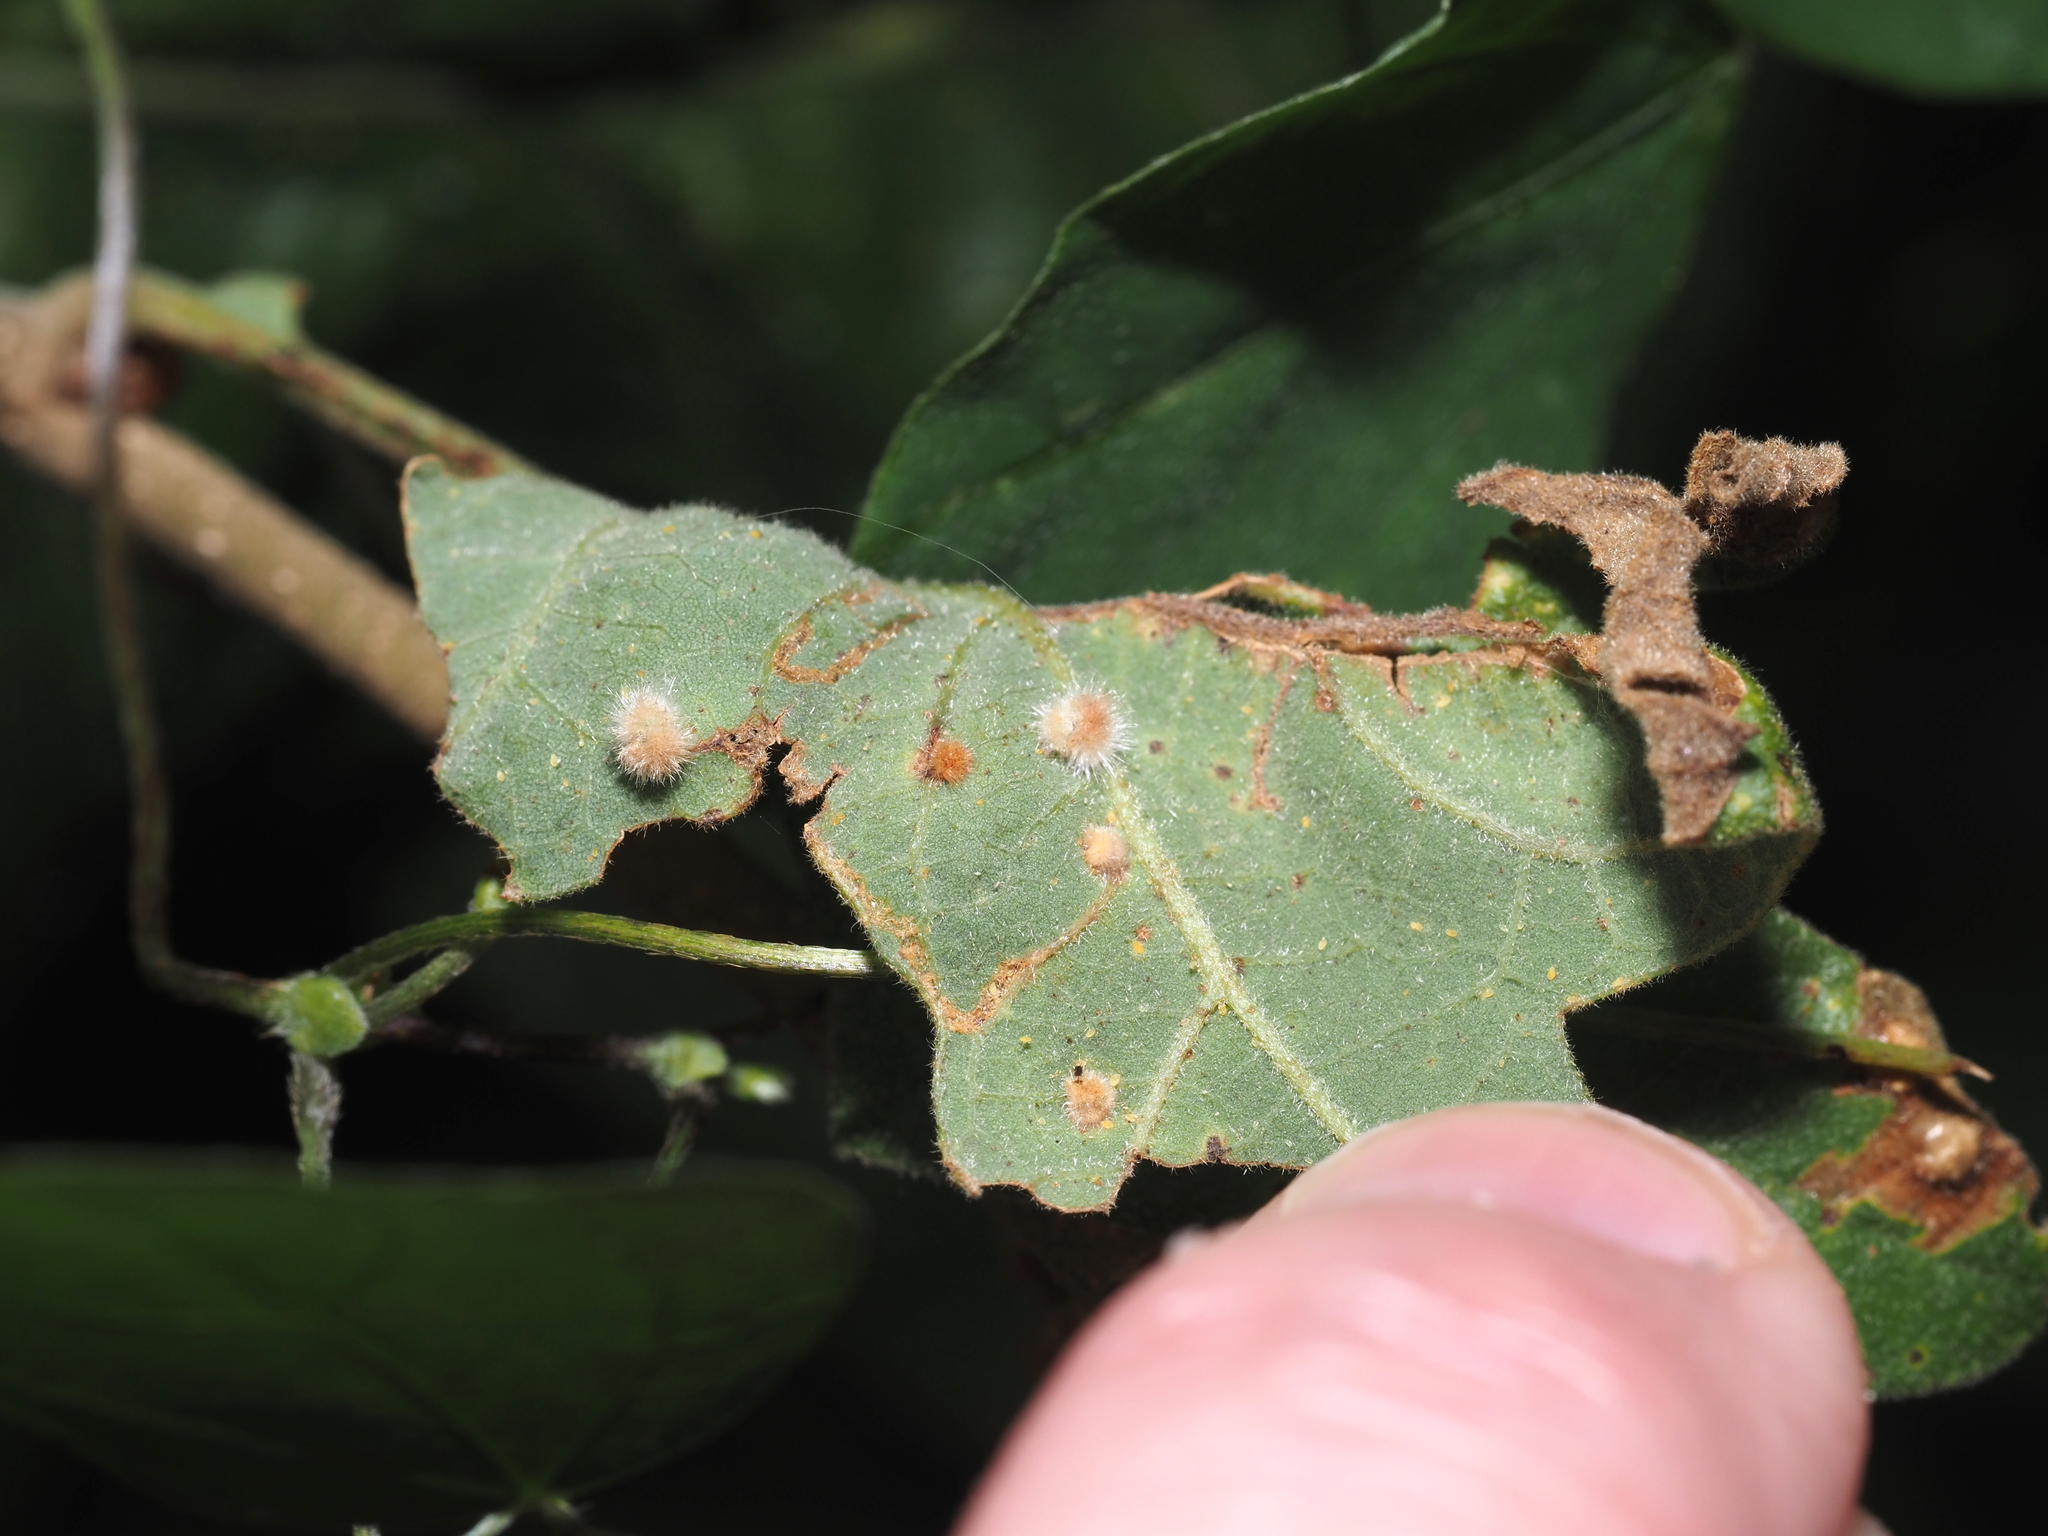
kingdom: Animalia
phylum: Arthropoda
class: Insecta
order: Hymenoptera
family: Cynipidae
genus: Neuroterus
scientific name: Neuroterus quercusverrucarum
